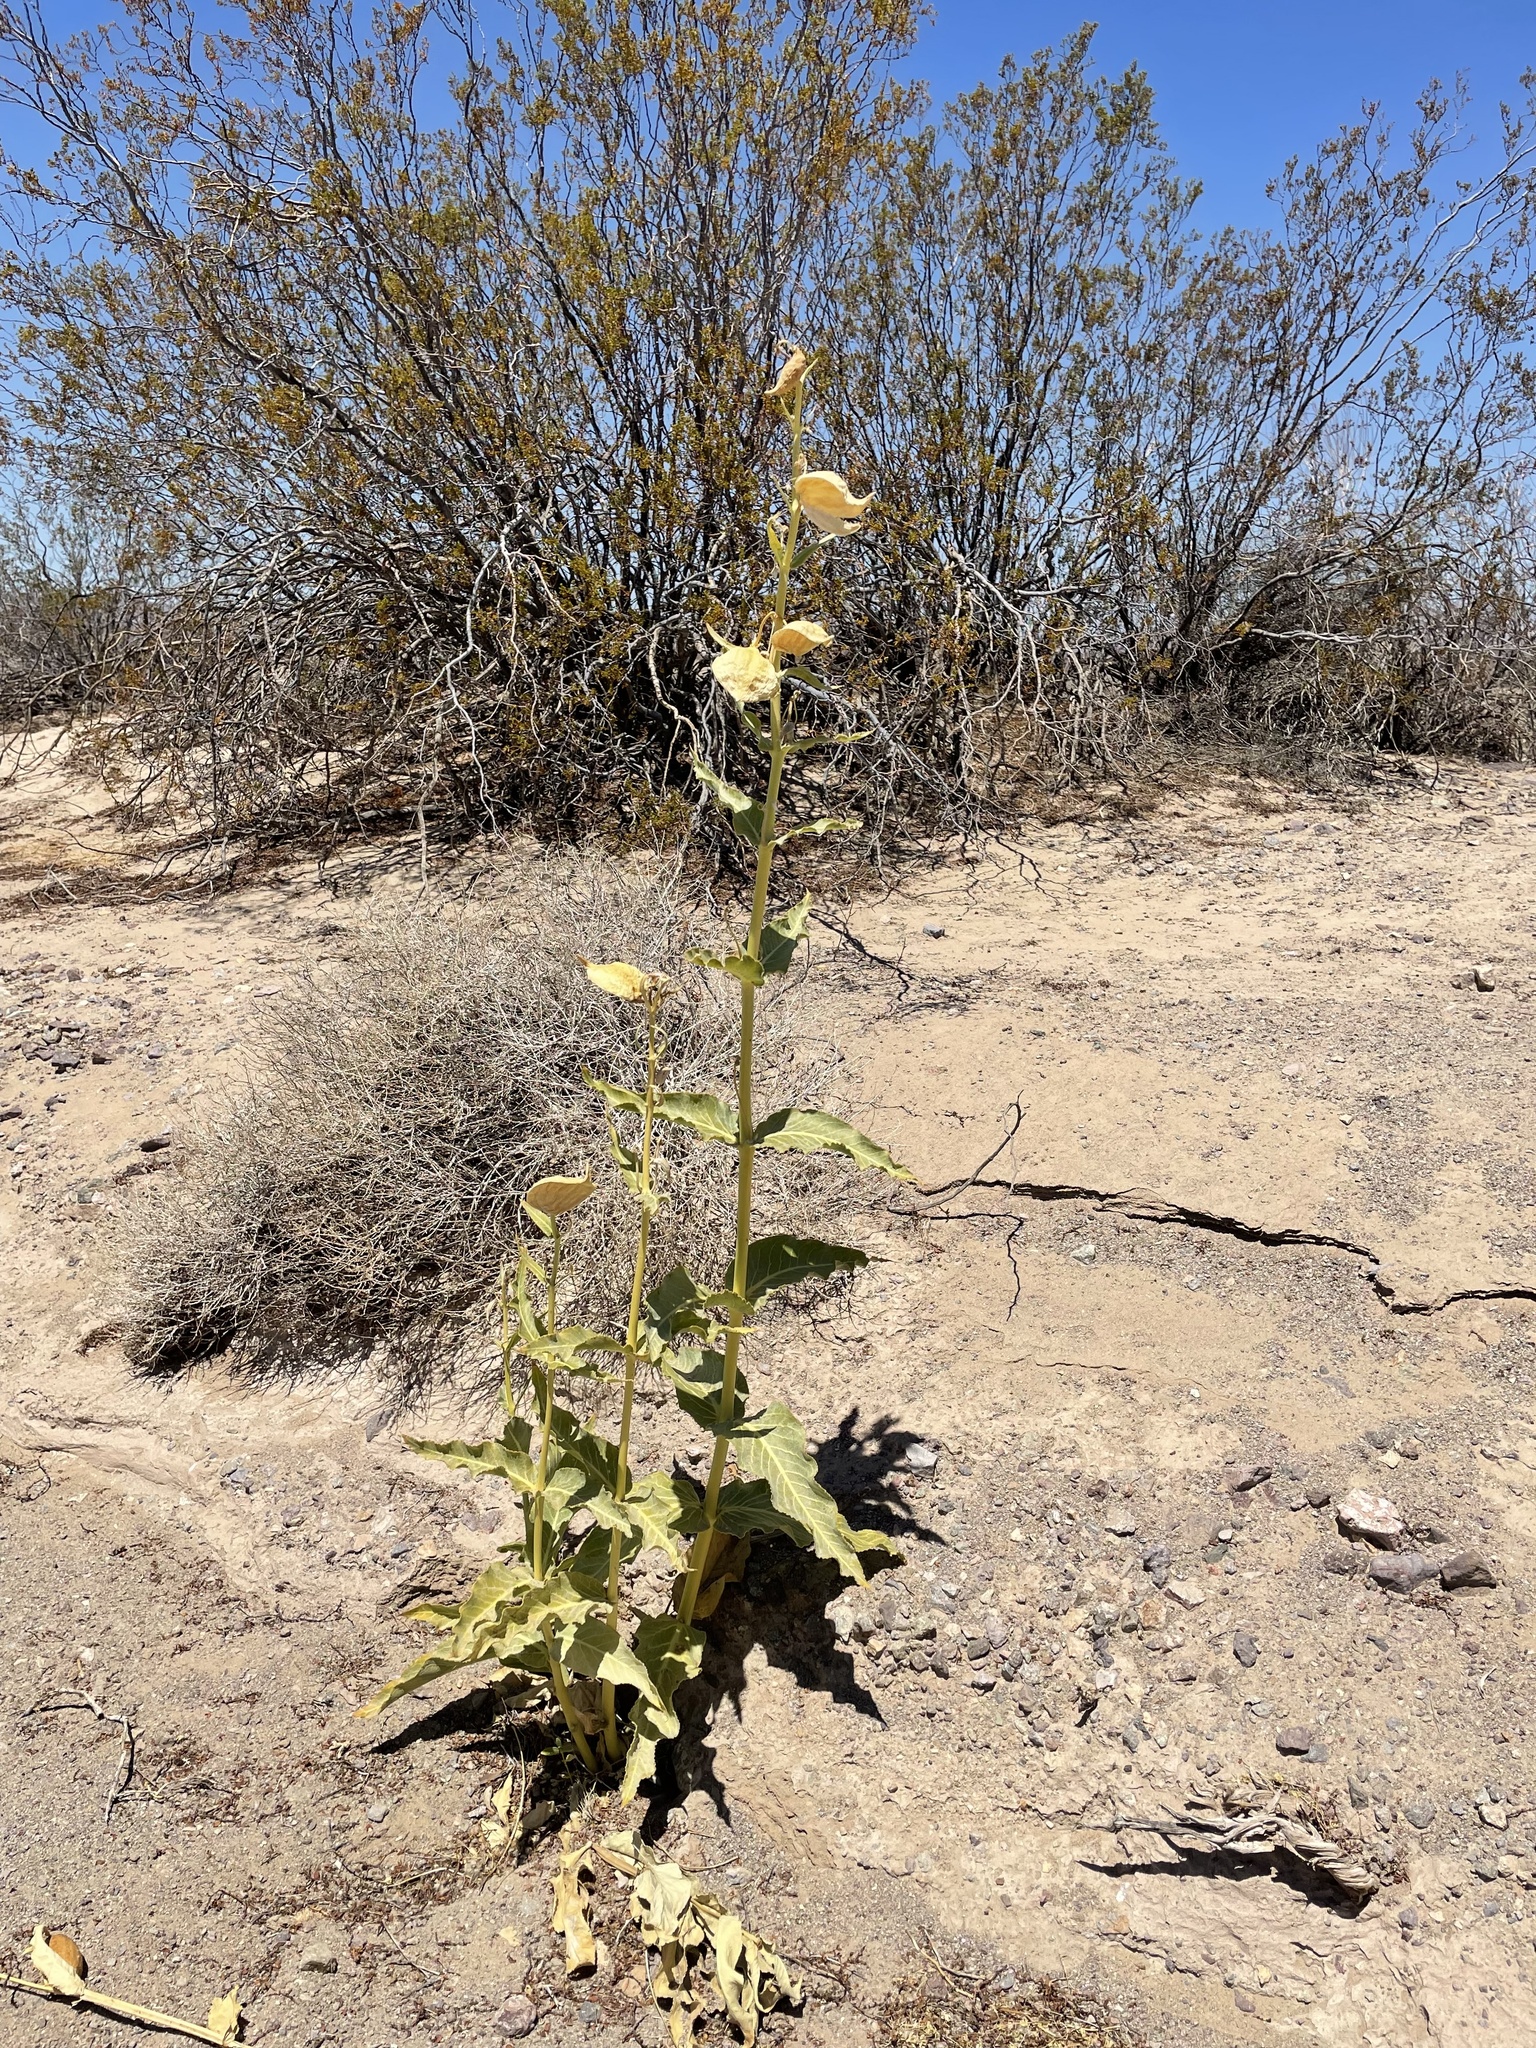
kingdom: Plantae
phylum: Tracheophyta
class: Magnoliopsida
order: Gentianales
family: Apocynaceae
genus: Asclepias
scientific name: Asclepias erosa
